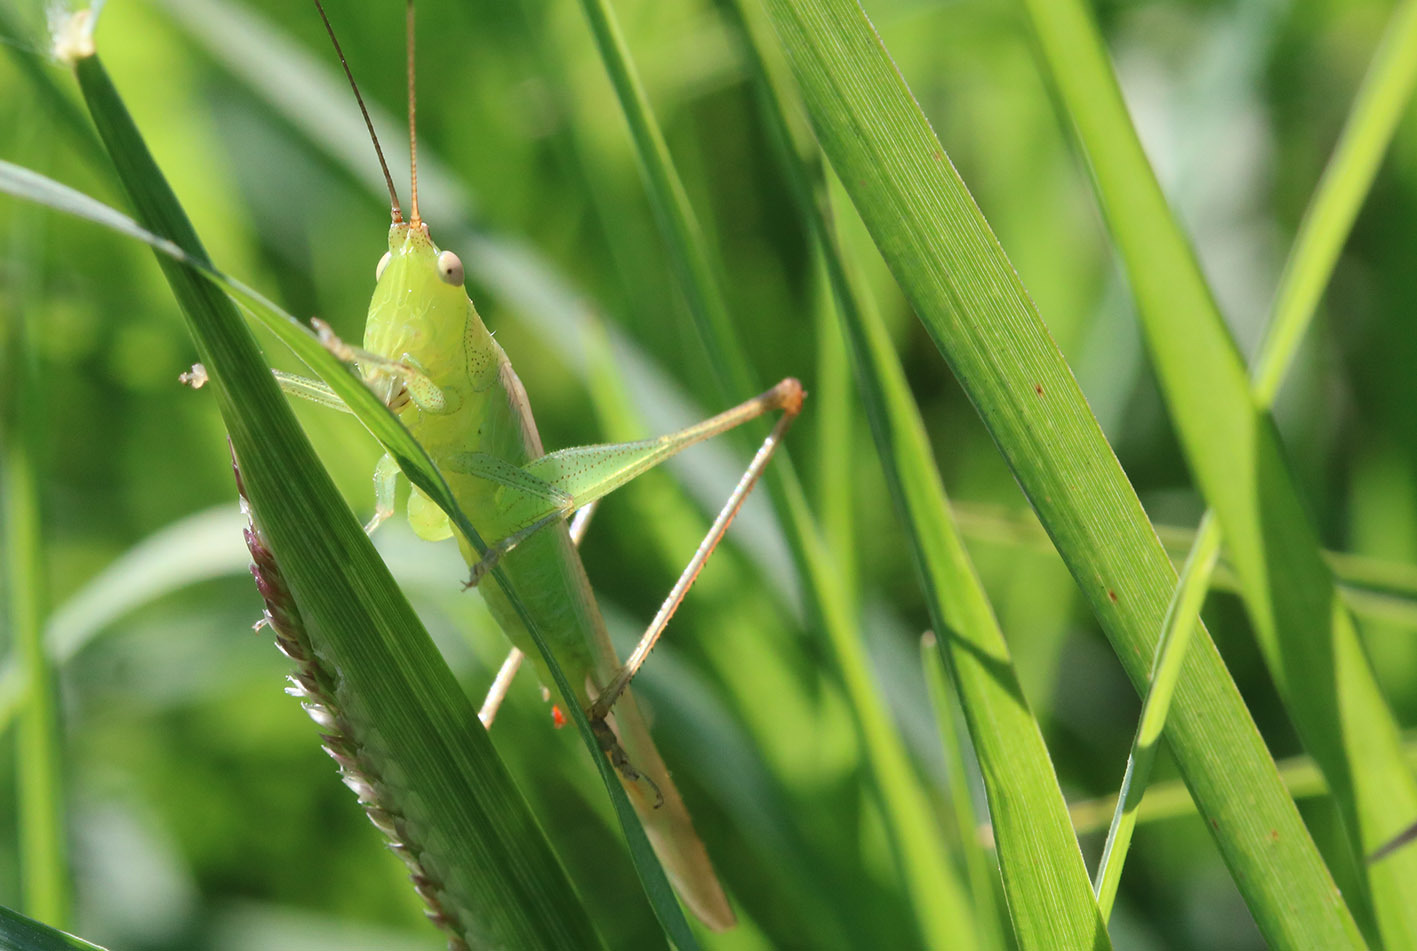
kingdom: Animalia
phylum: Arthropoda
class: Insecta
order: Orthoptera
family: Tettigoniidae
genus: Conocephalus
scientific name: Conocephalus longipes
